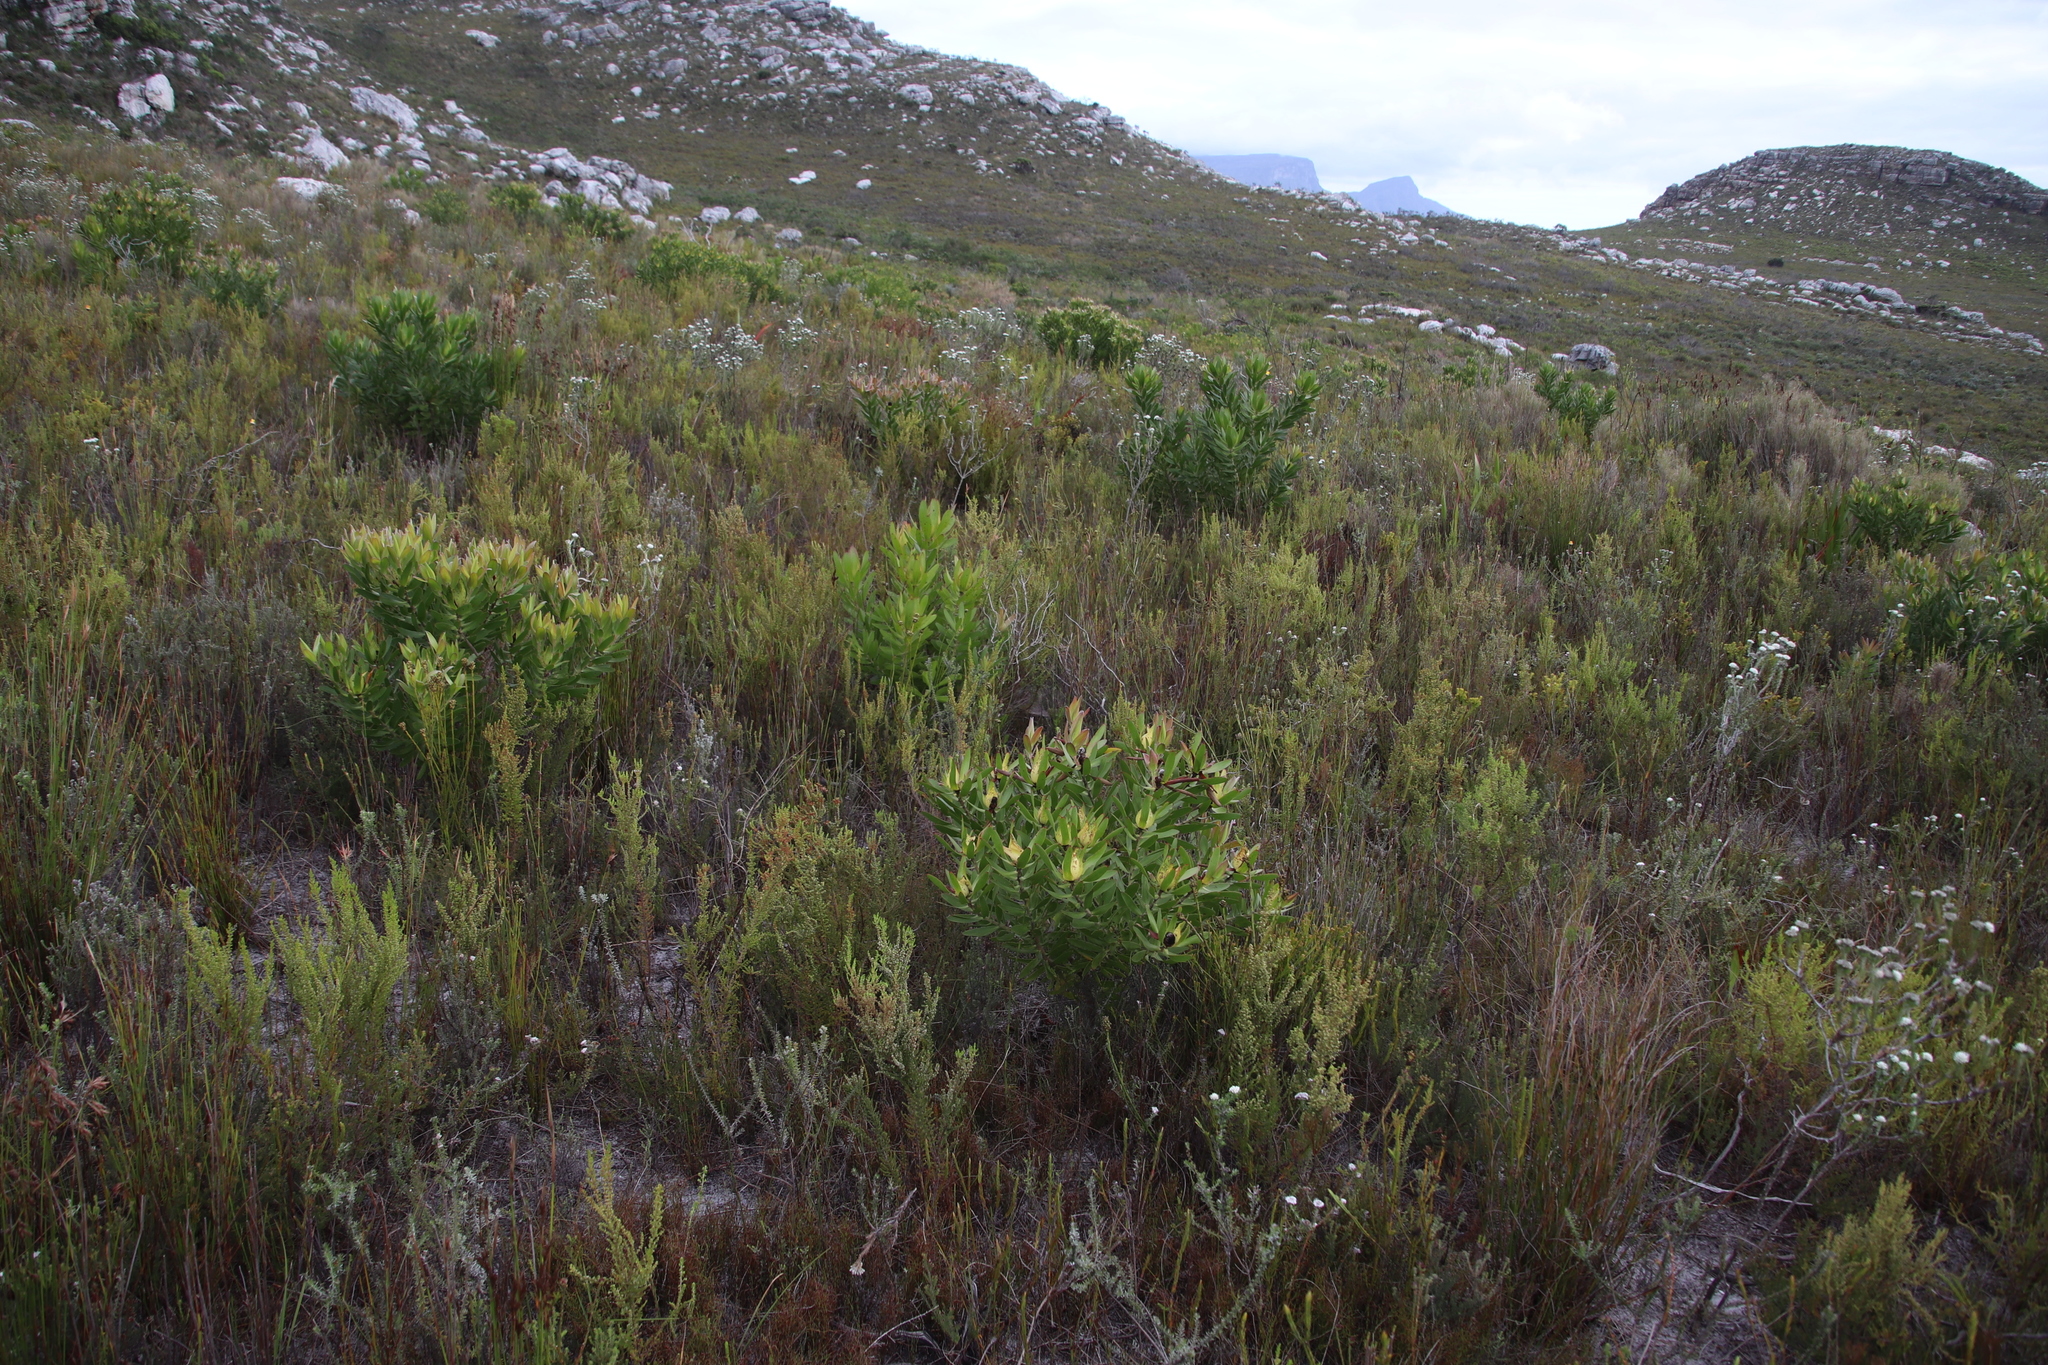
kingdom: Plantae
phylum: Tracheophyta
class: Magnoliopsida
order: Proteales
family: Proteaceae
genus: Leucadendron
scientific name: Leucadendron laureolum
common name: Golden sunshinebush
